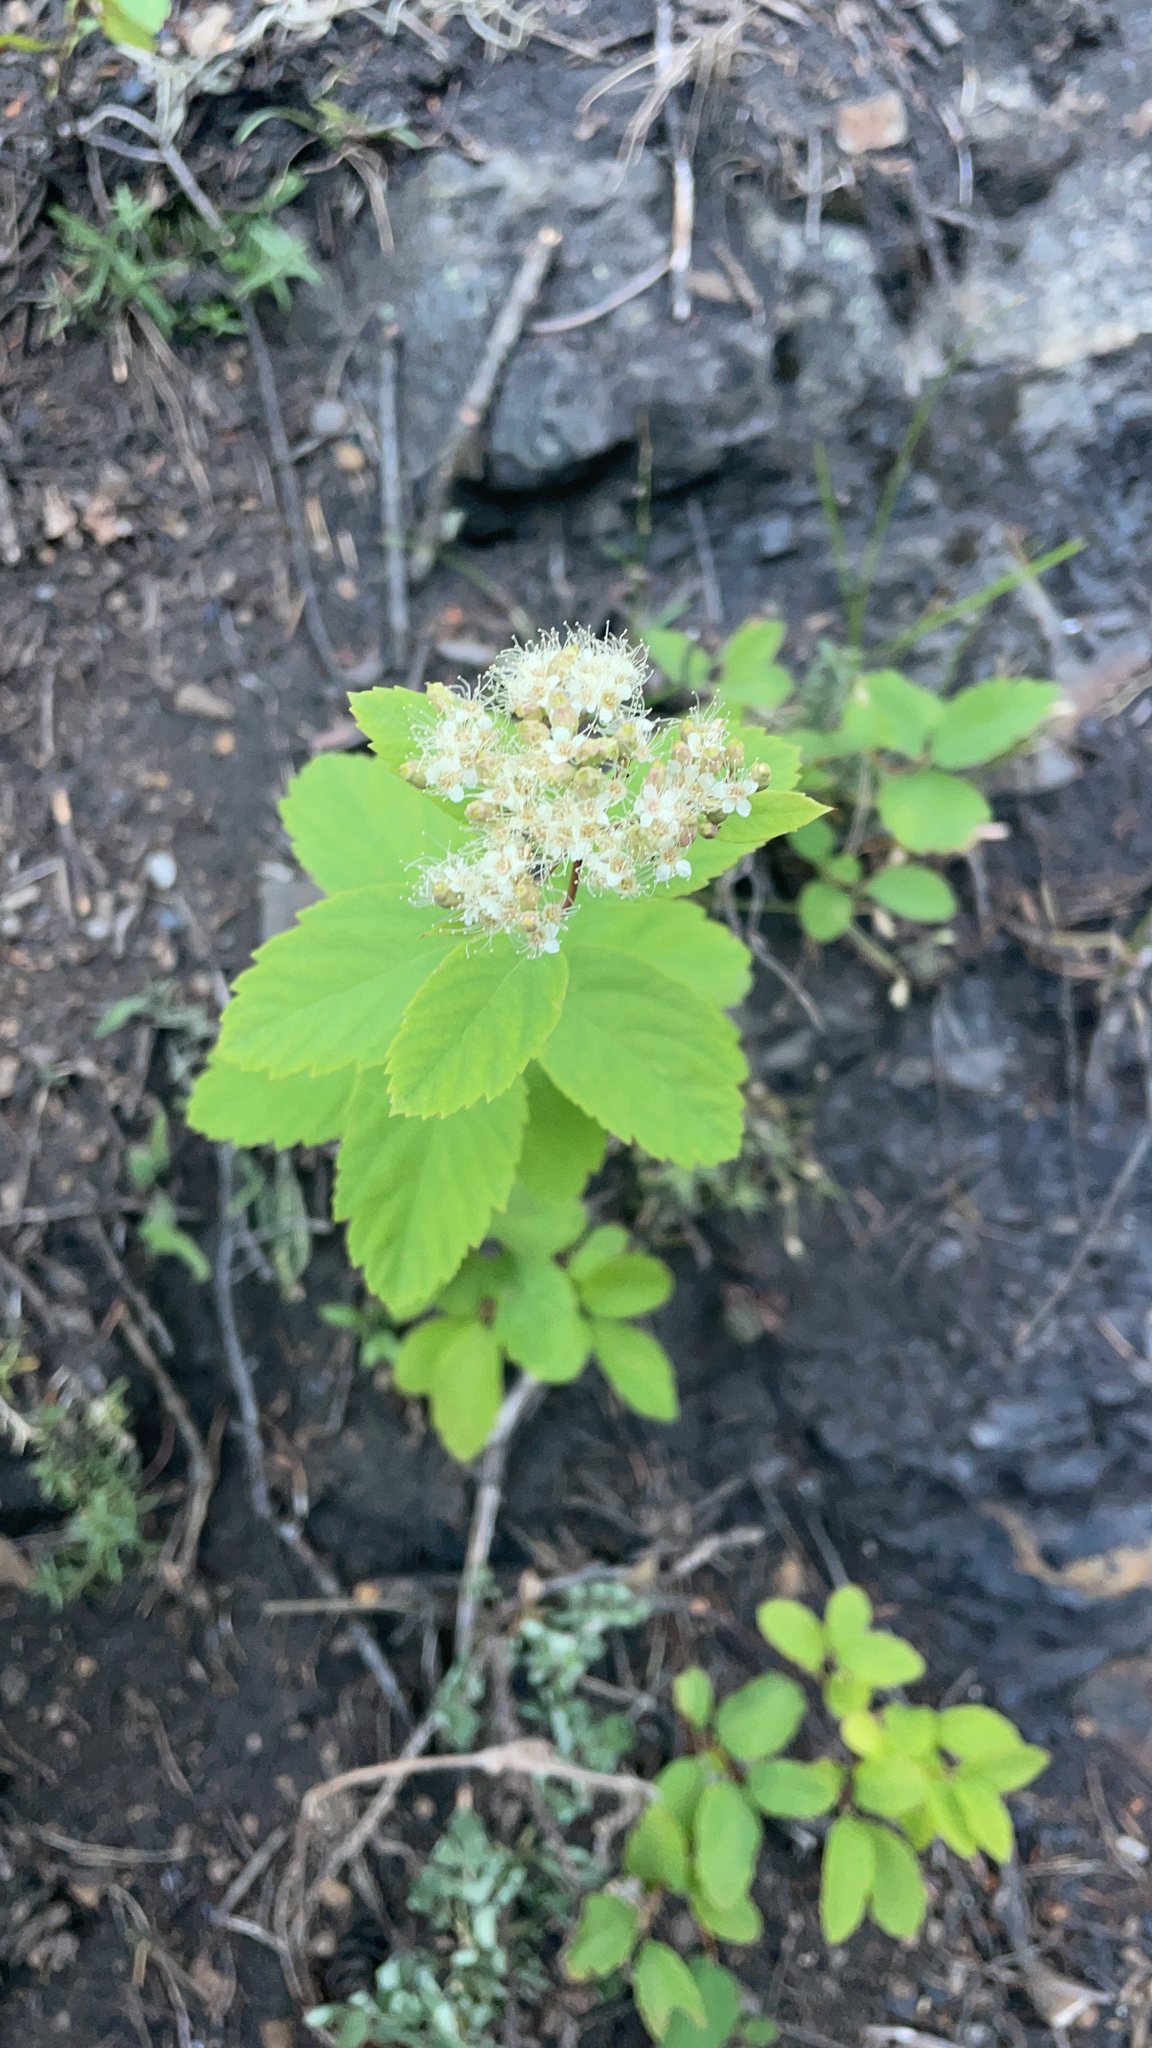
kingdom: Plantae
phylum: Tracheophyta
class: Magnoliopsida
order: Rosales
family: Rosaceae
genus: Spiraea
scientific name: Spiraea lucida
